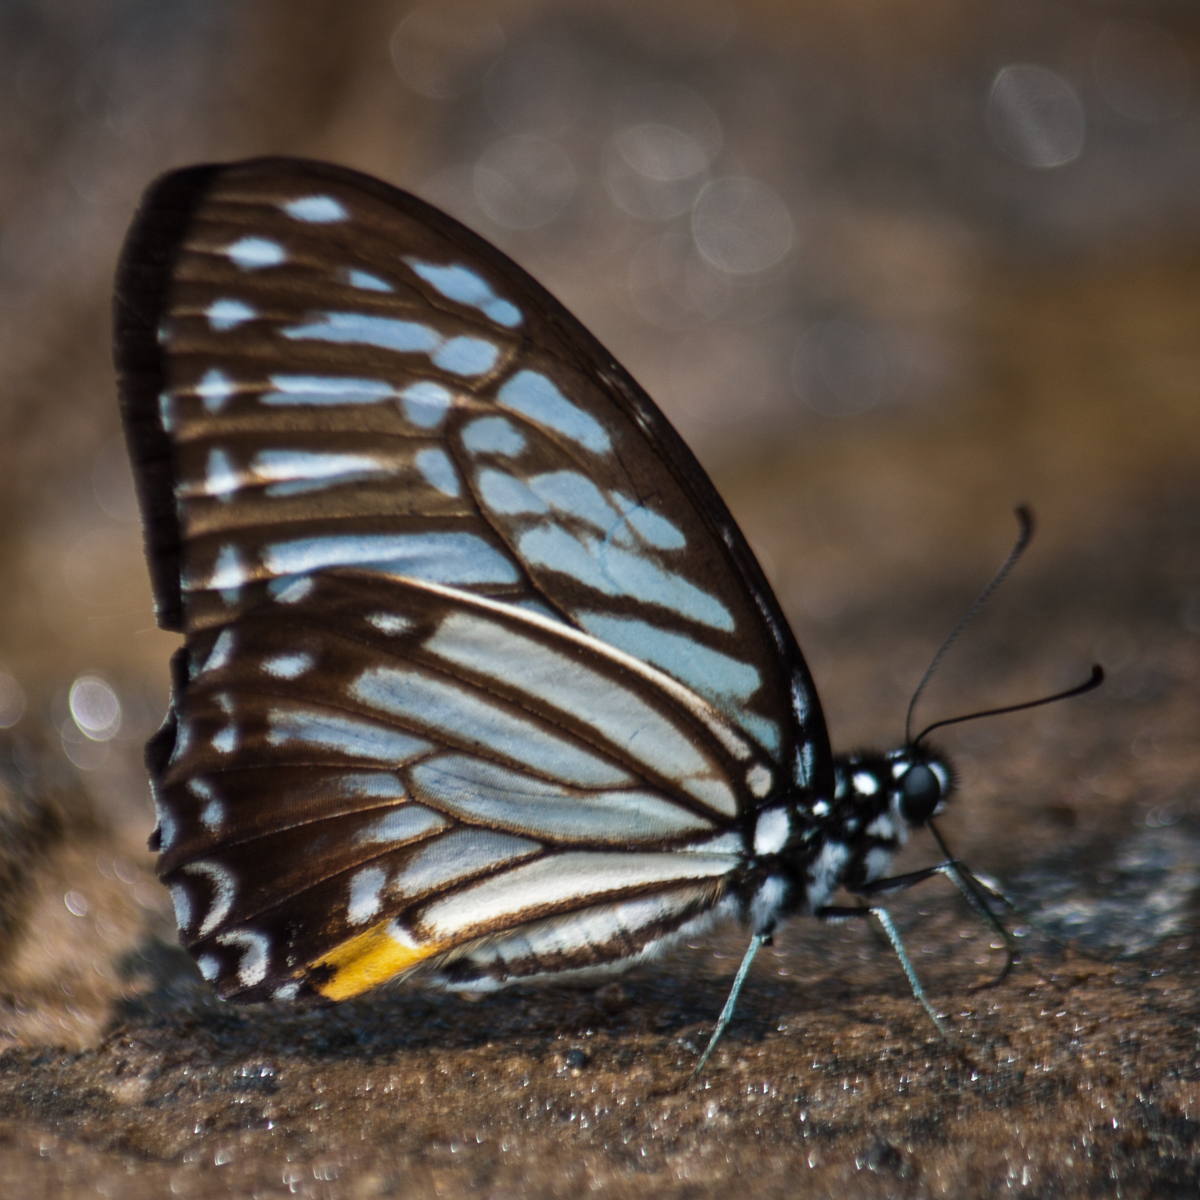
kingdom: Animalia
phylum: Arthropoda
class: Insecta
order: Lepidoptera
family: Papilionidae
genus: Graphium
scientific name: Graphium xenocles
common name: Great zebra
